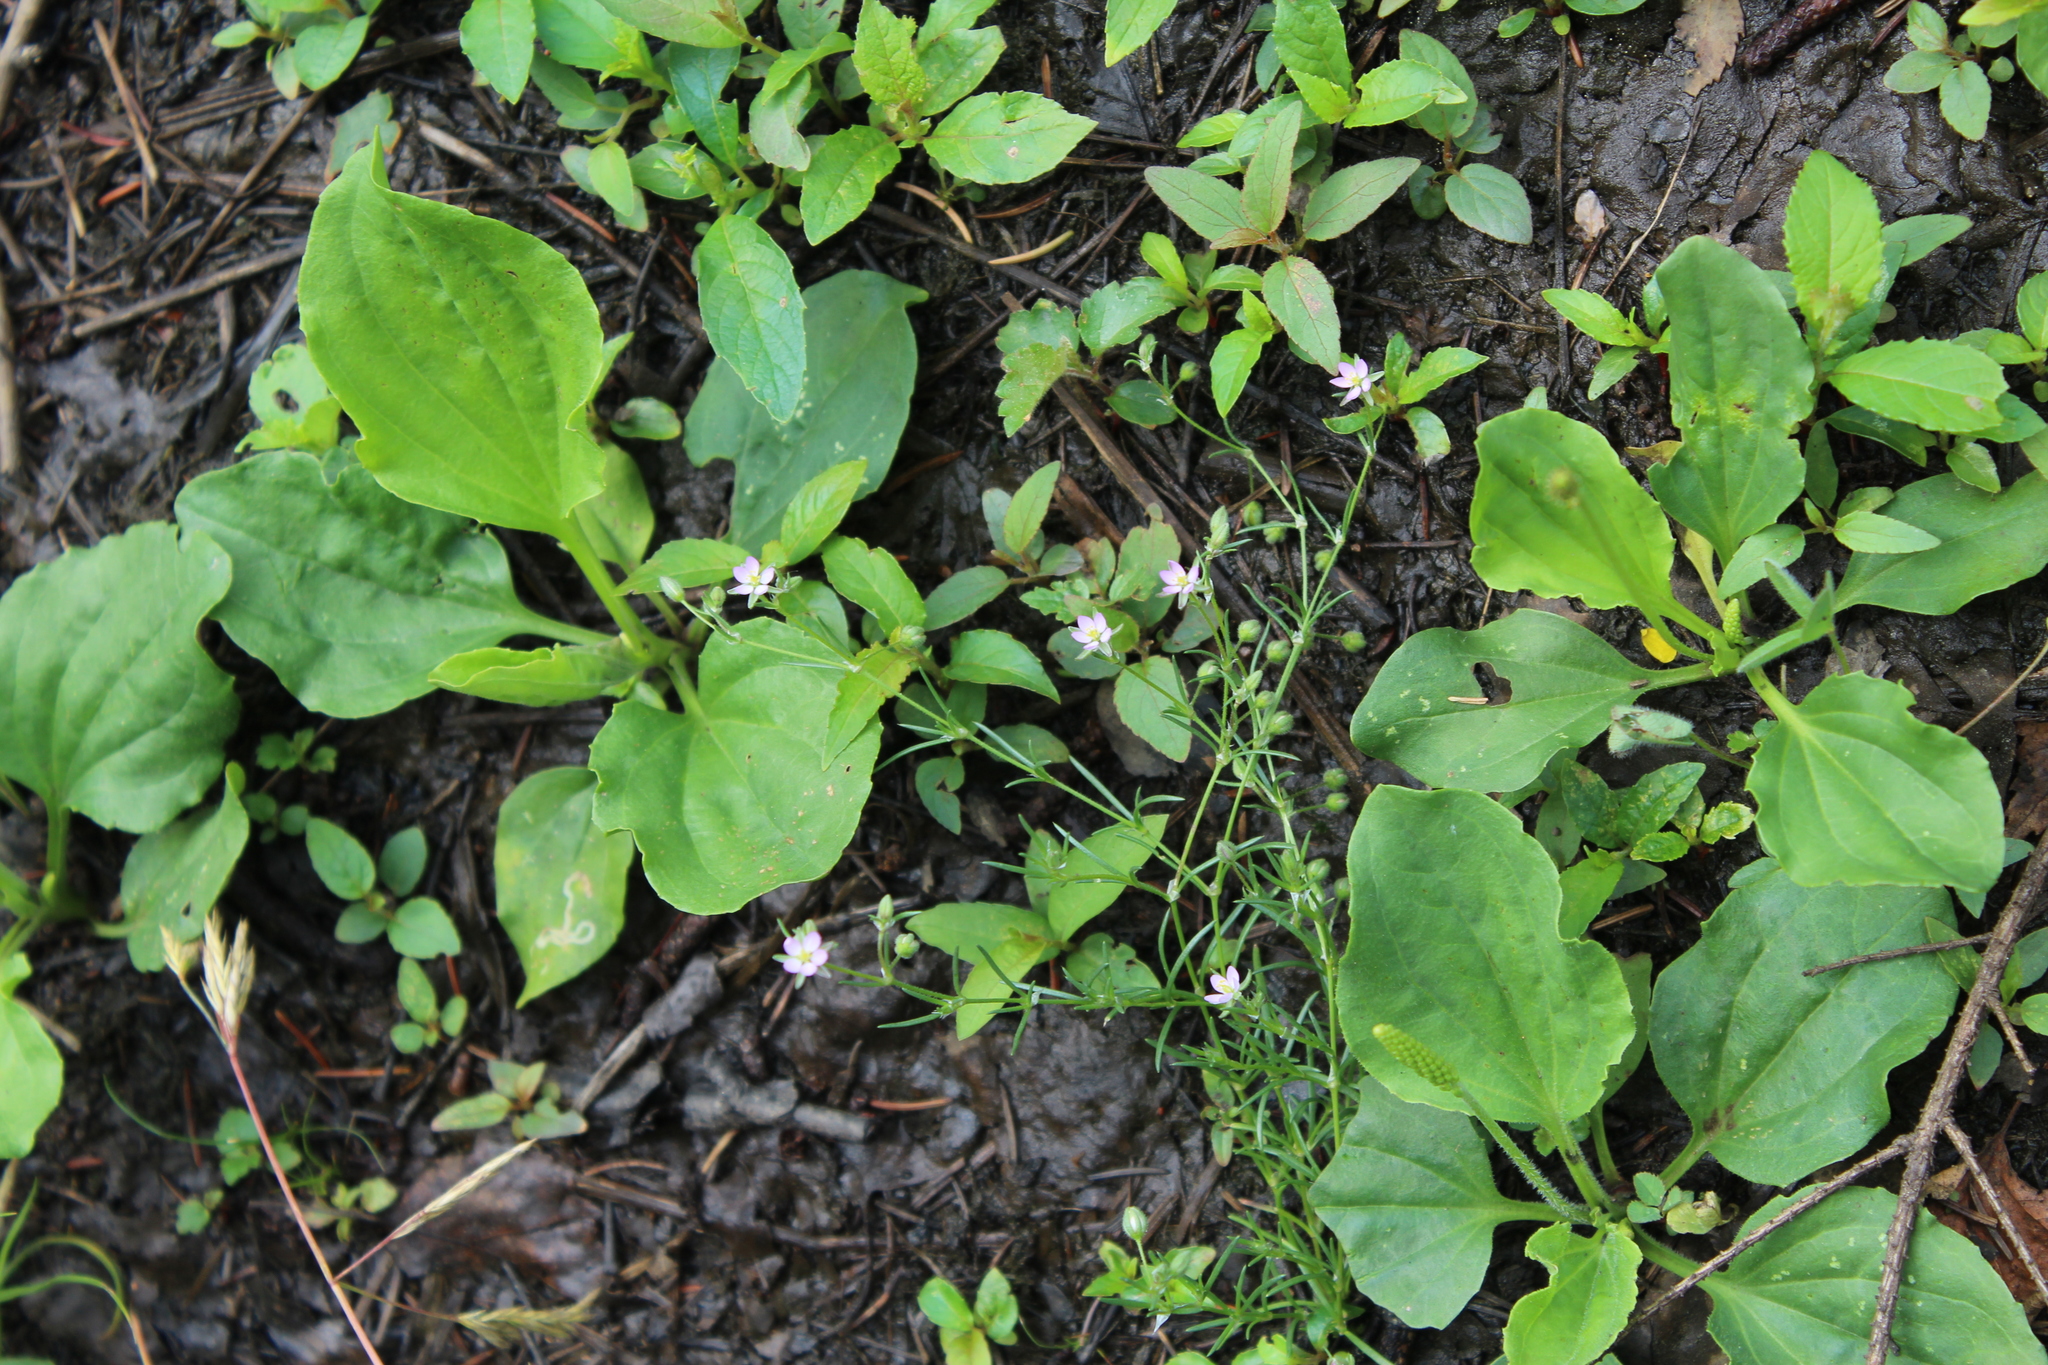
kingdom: Plantae
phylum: Tracheophyta
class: Magnoliopsida
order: Caryophyllales
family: Caryophyllaceae
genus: Spergularia
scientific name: Spergularia rubra
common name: Red sand-spurrey
